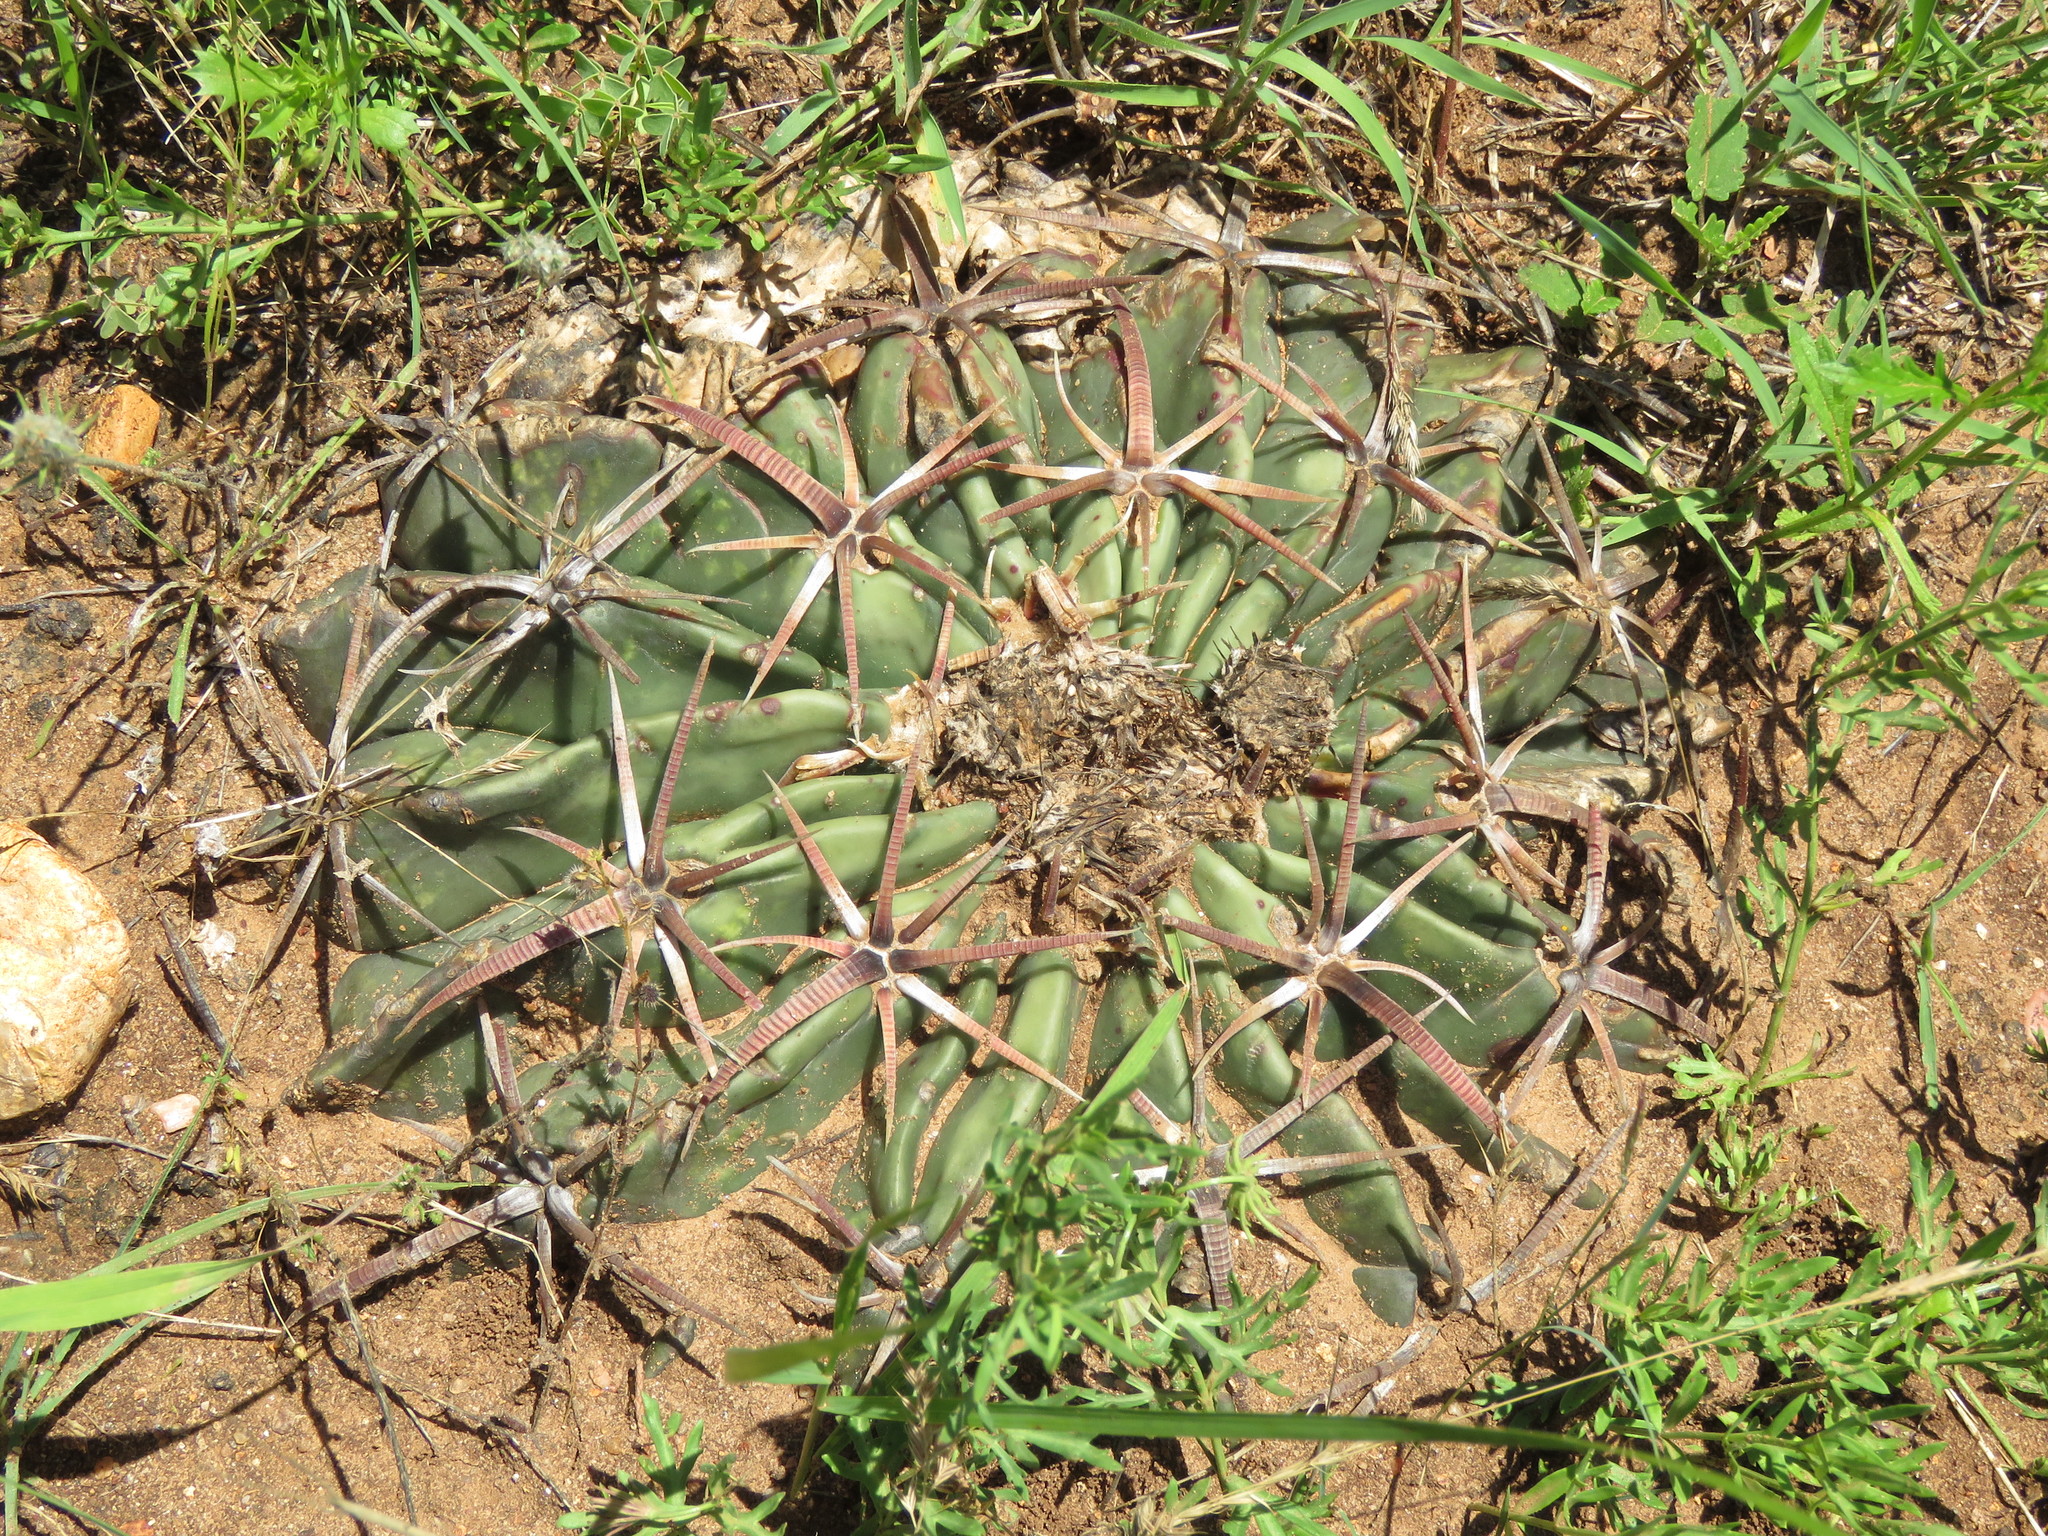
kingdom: Plantae
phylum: Tracheophyta
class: Magnoliopsida
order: Caryophyllales
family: Cactaceae
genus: Echinocactus
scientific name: Echinocactus texensis
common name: Devil's pincushion
